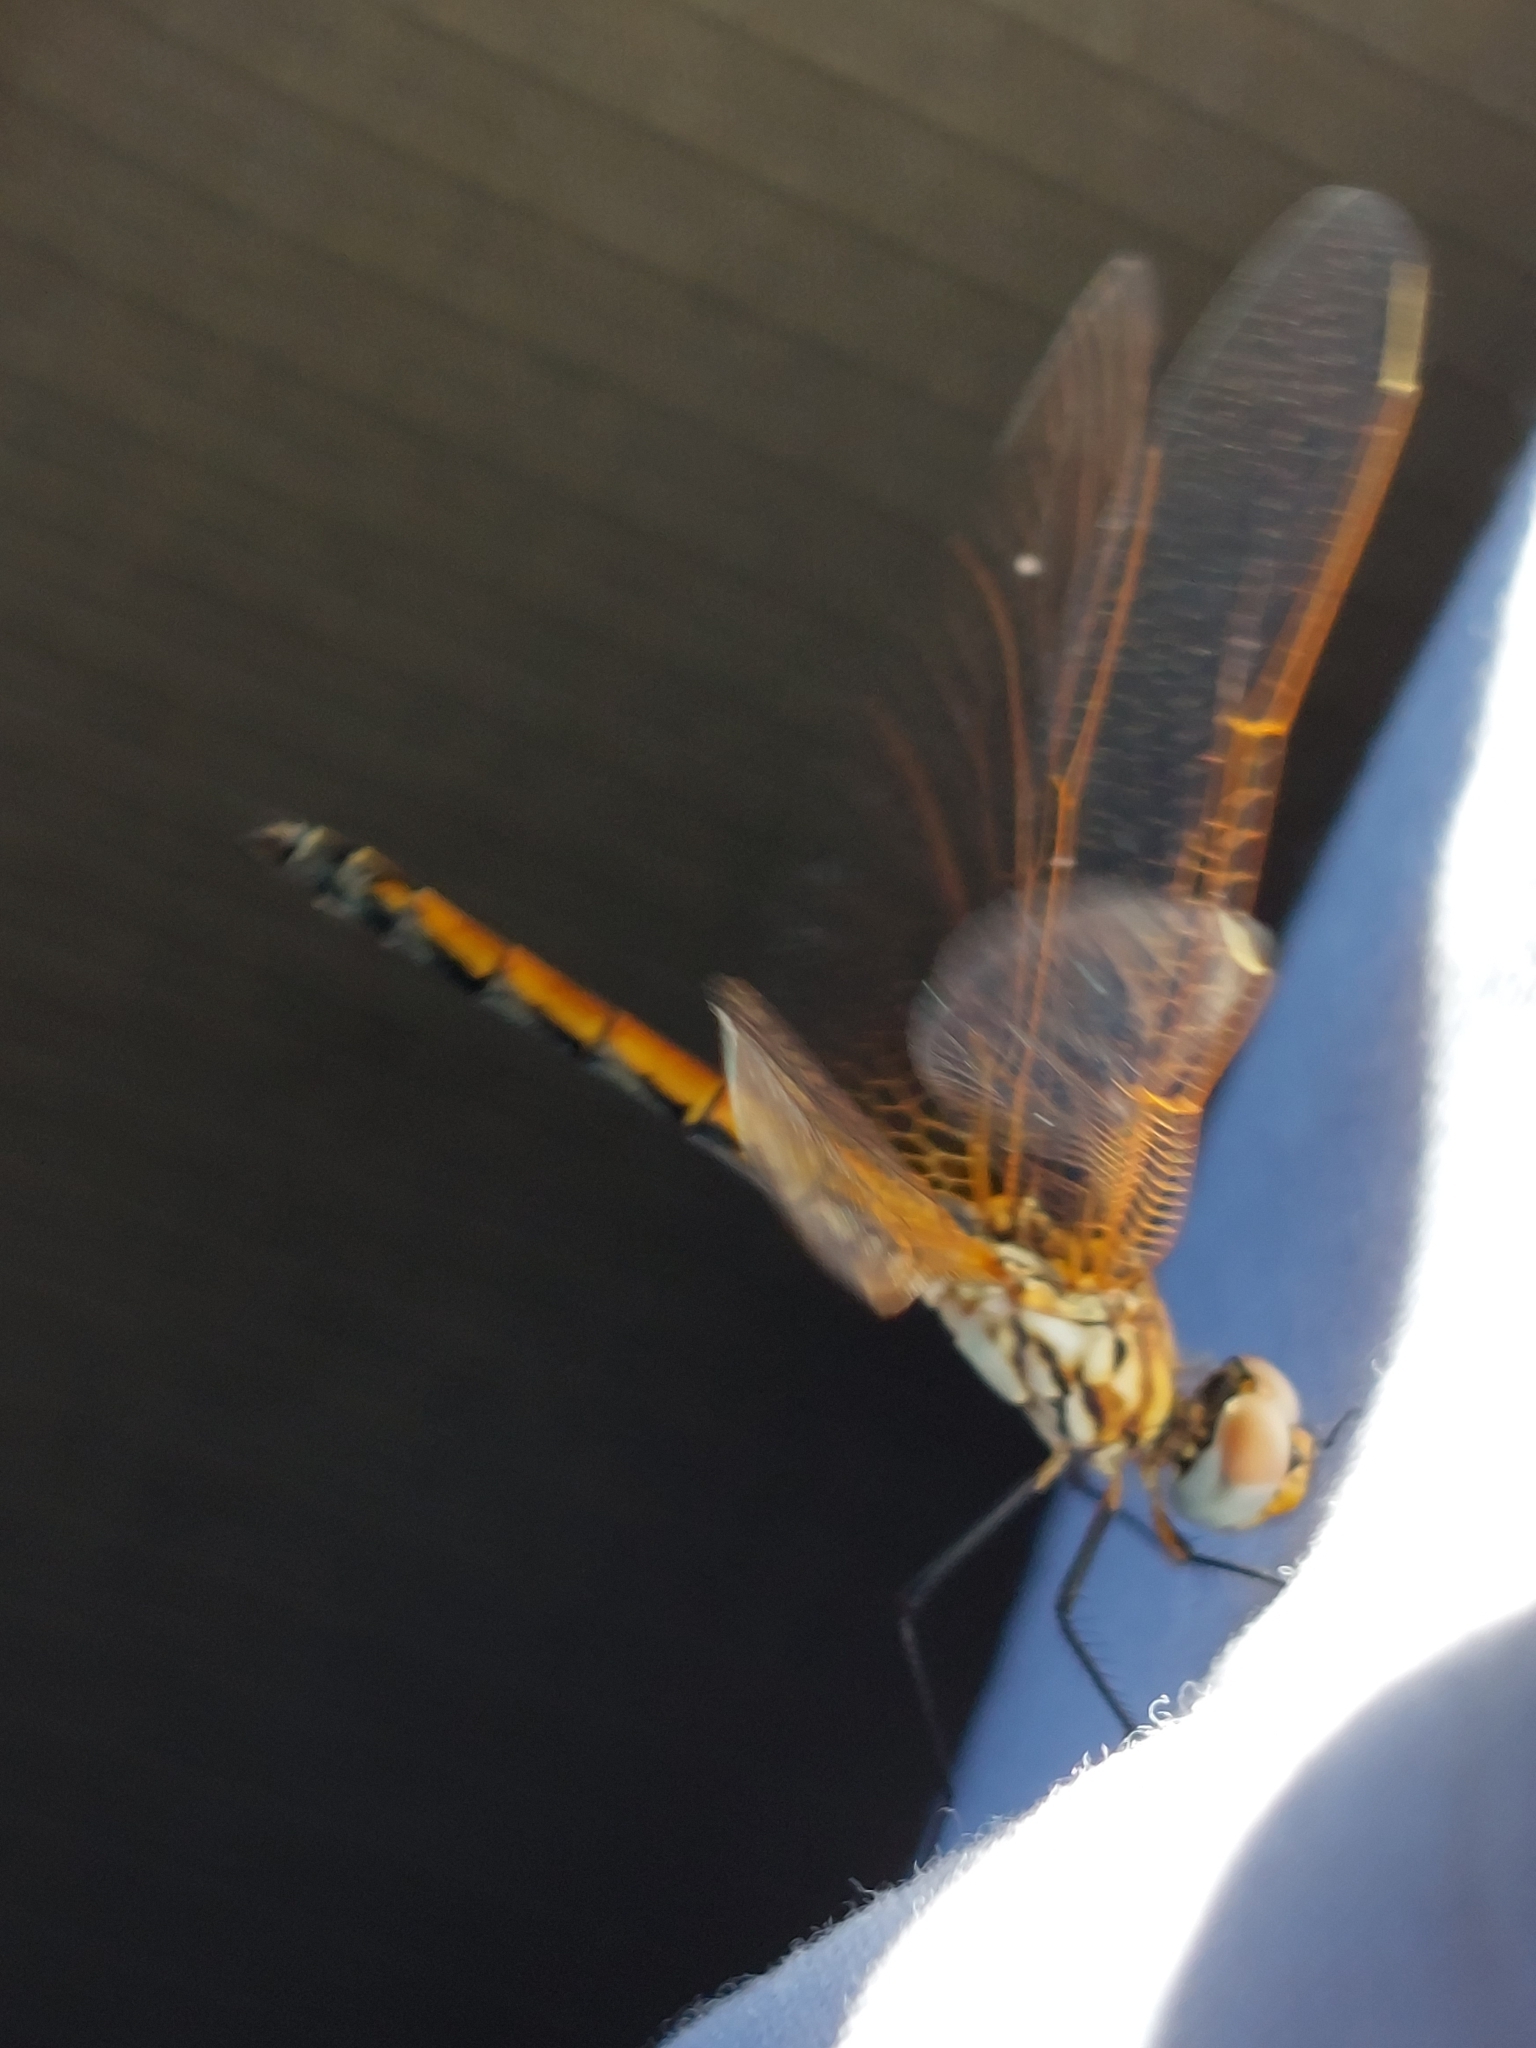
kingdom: Animalia
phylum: Arthropoda
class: Insecta
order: Odonata
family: Libellulidae
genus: Trithemis
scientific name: Trithemis arteriosa
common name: Red-veined dropwing
